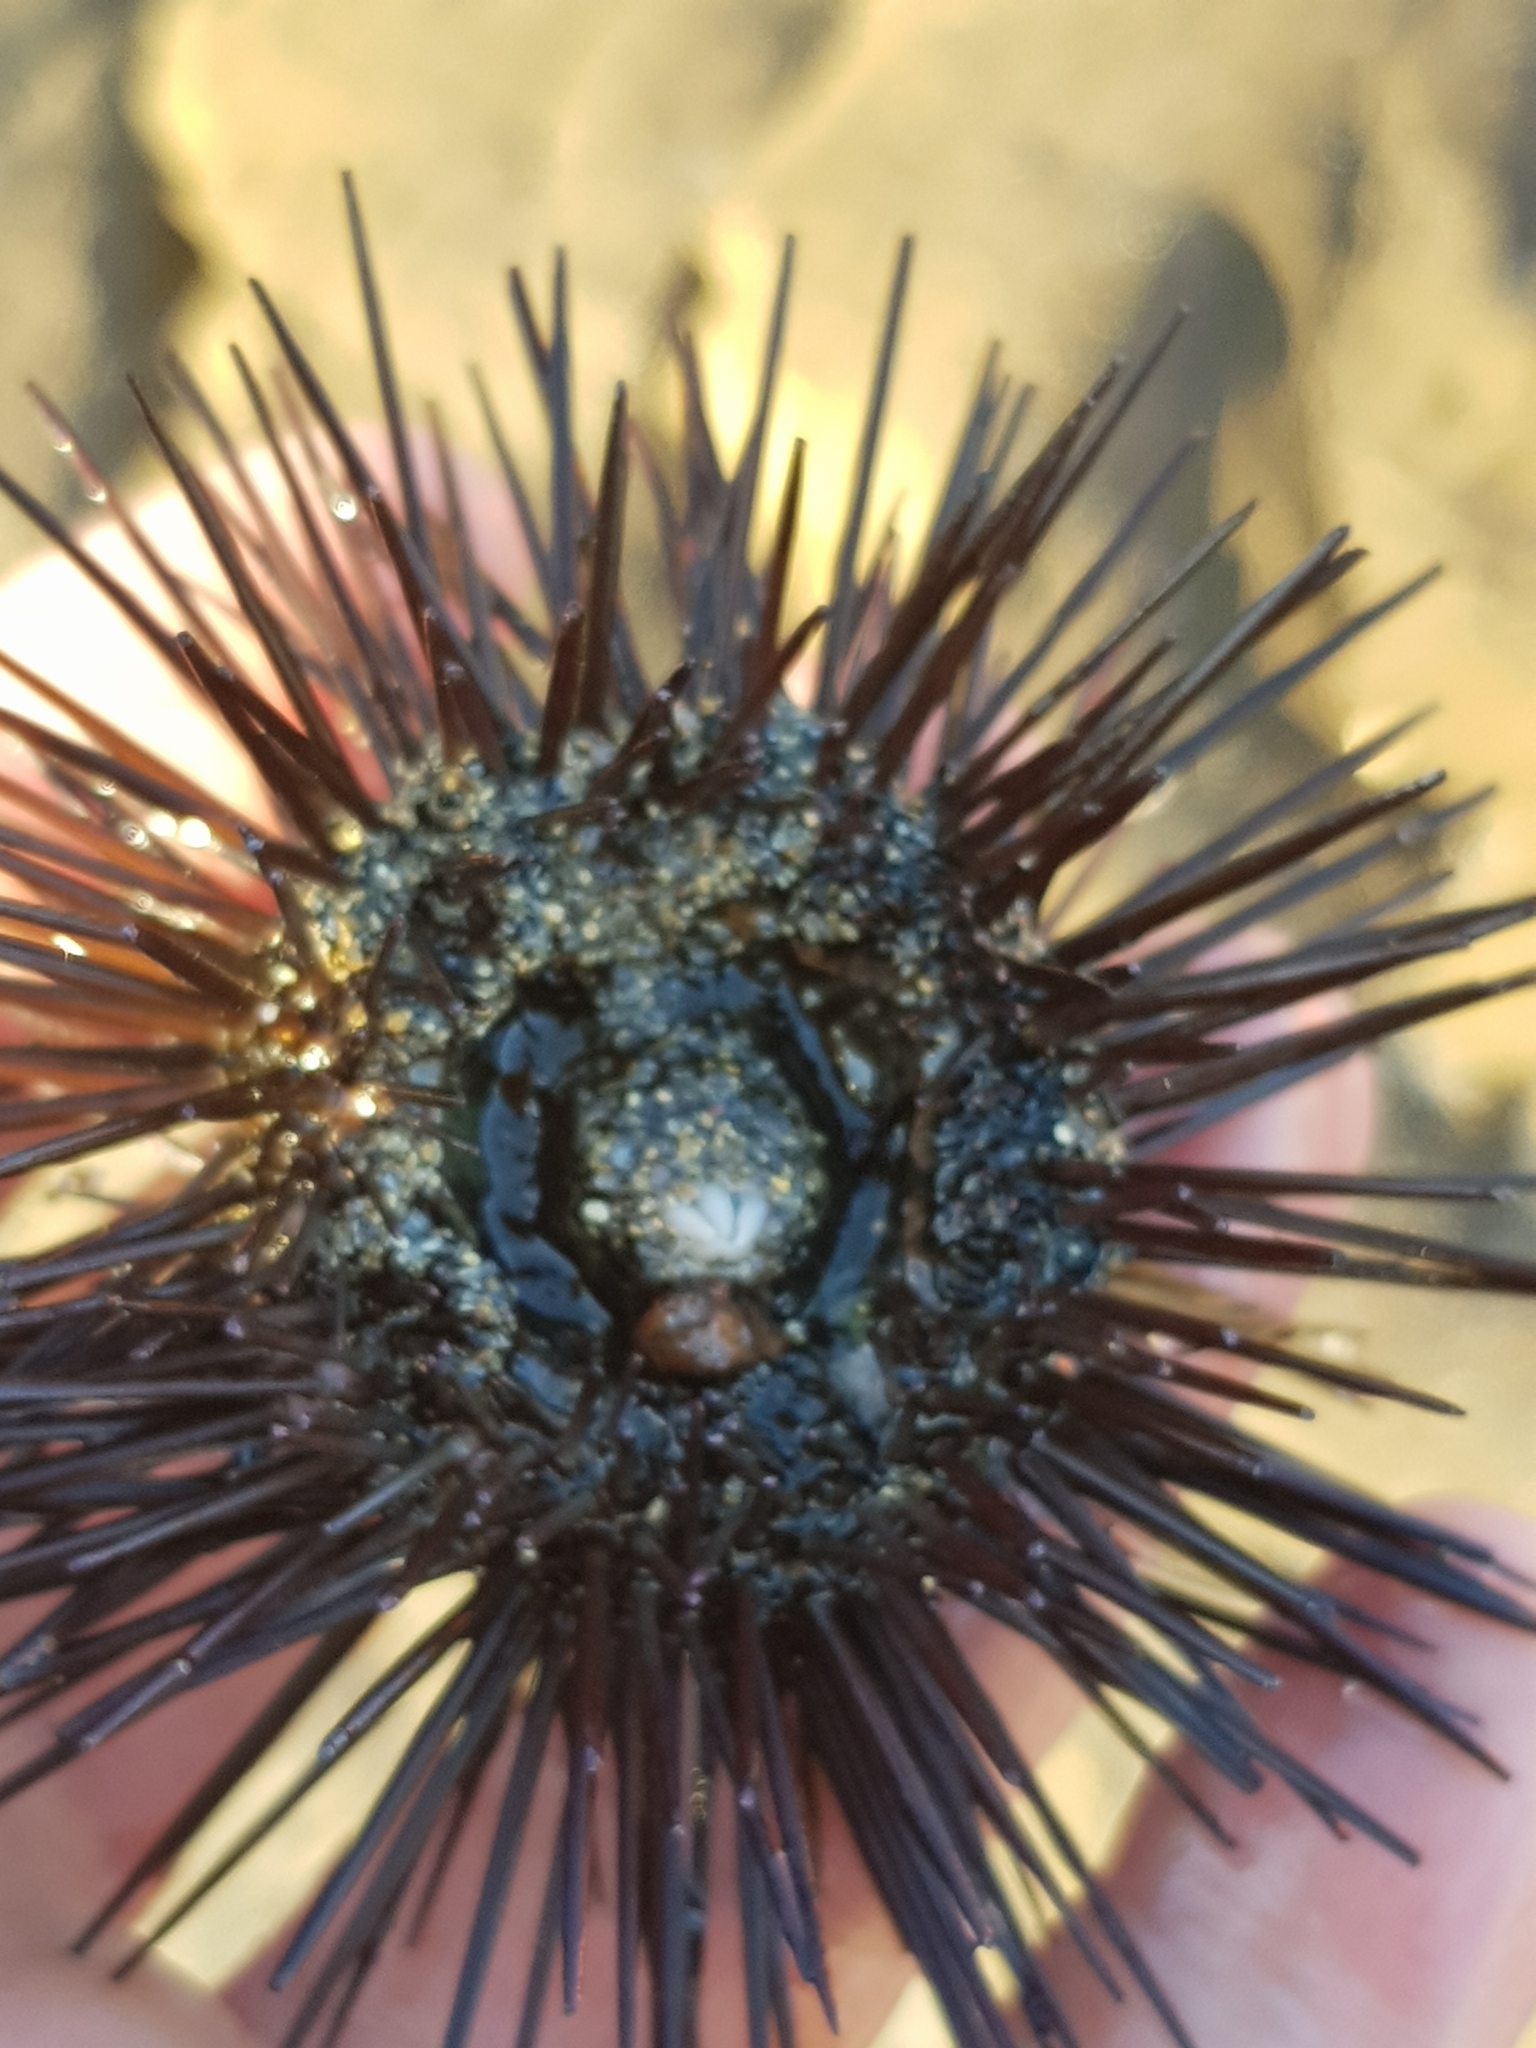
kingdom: Animalia
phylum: Echinodermata
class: Echinoidea
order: Camarodonta
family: Parechinidae
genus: Paracentrotus
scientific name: Paracentrotus lividus
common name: Purple sea urchin
